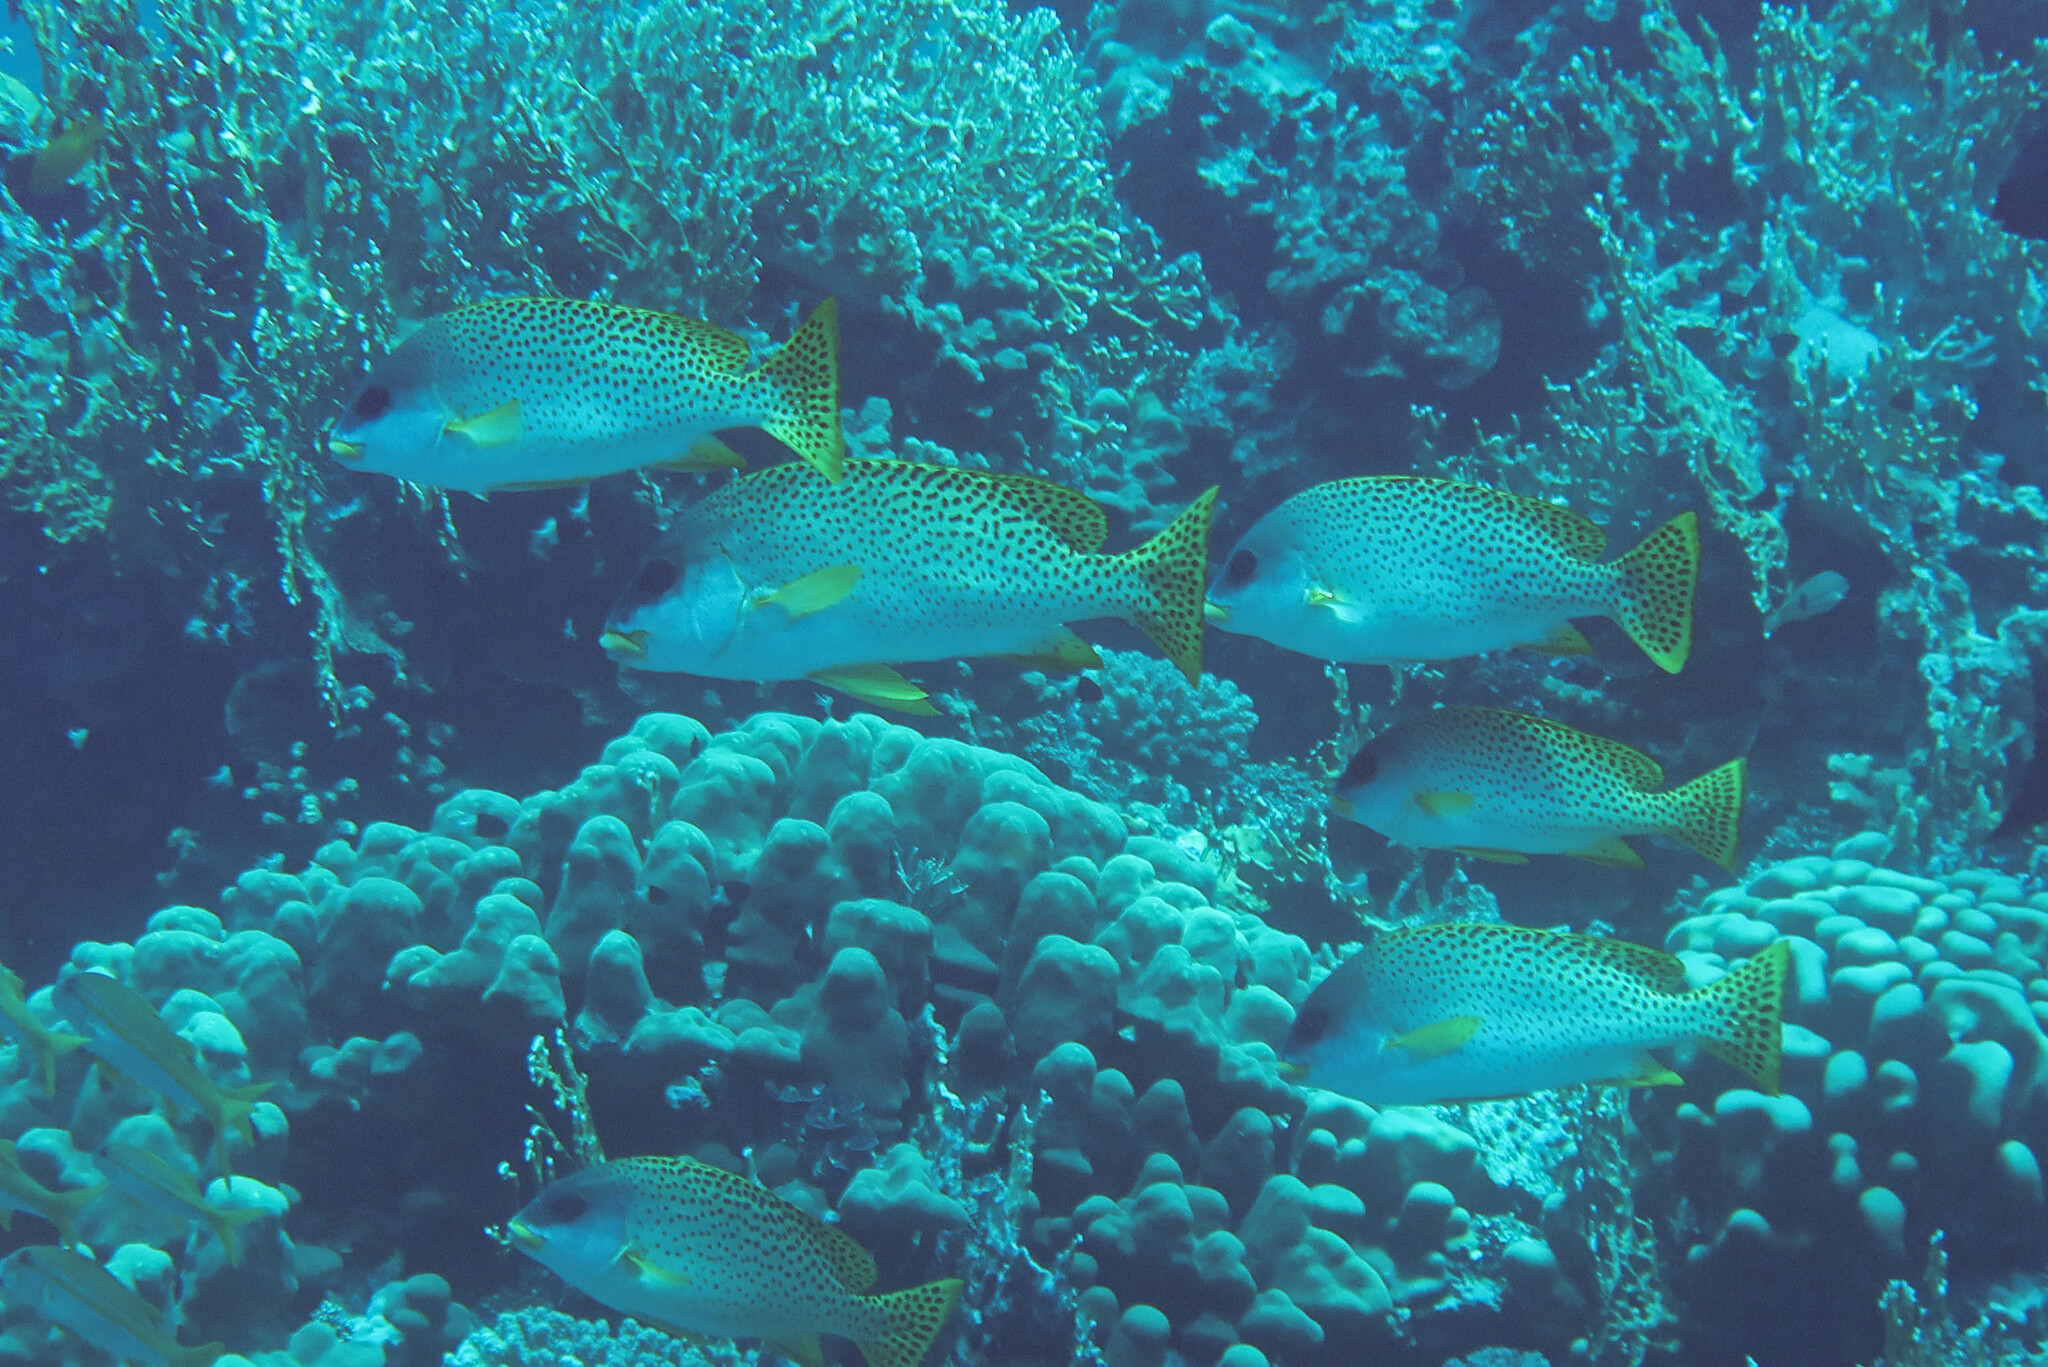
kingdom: Animalia
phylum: Chordata
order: Perciformes
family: Haemulidae
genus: Plectorhinchus
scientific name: Plectorhinchus gaterinus
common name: Blackspotted rubberlip
